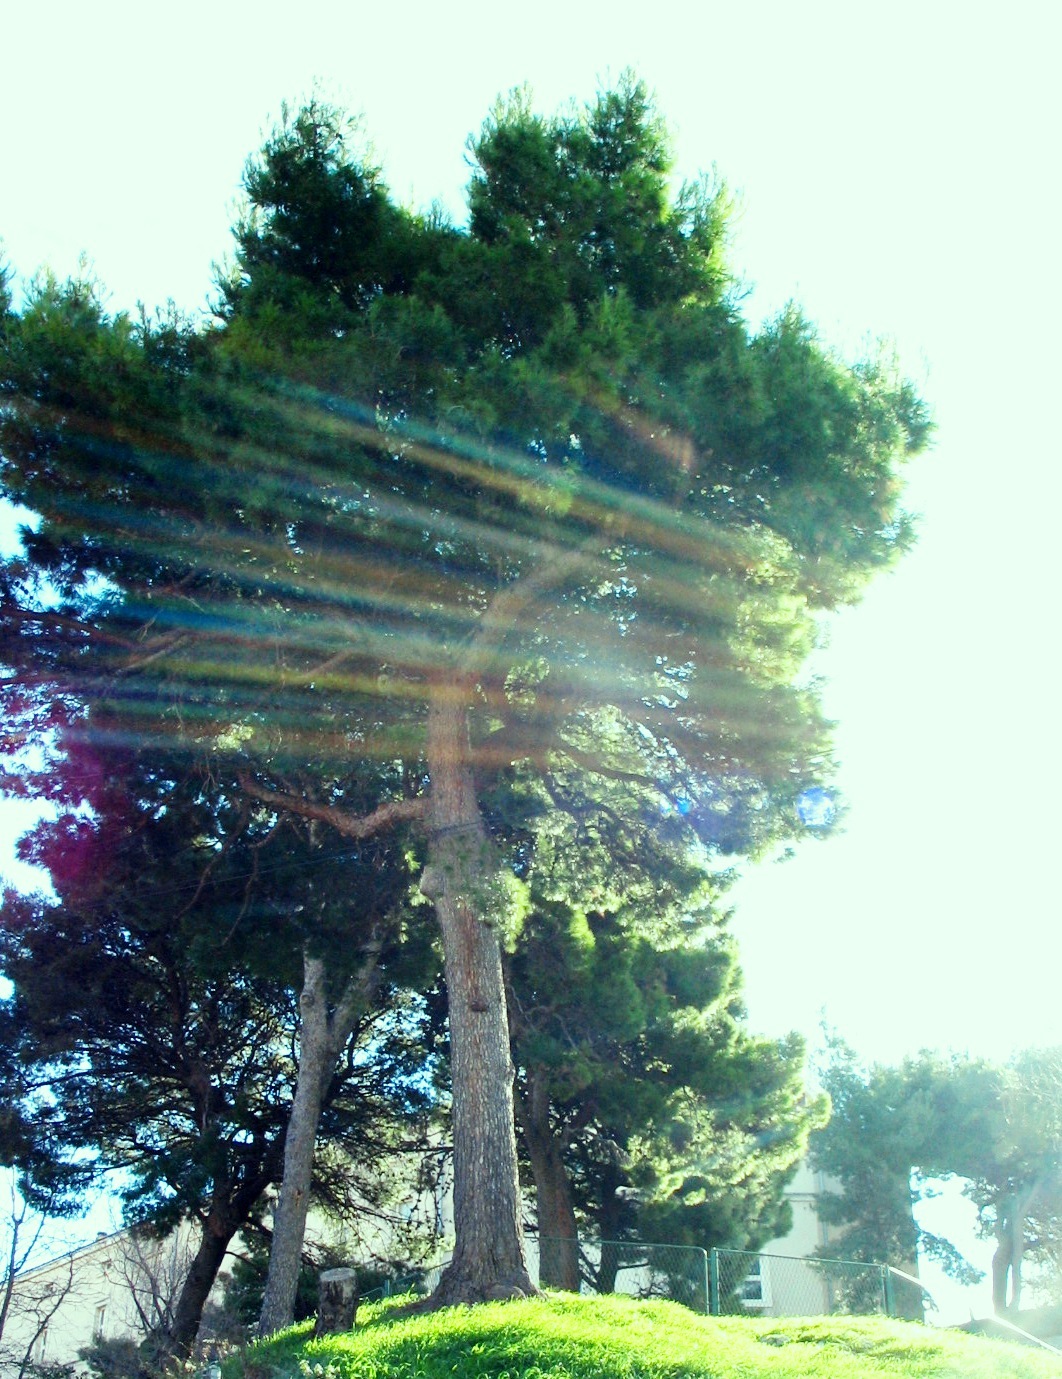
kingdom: Plantae
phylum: Tracheophyta
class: Pinopsida
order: Pinales
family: Pinaceae
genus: Pinus
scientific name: Pinus halepensis
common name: Aleppo pine
